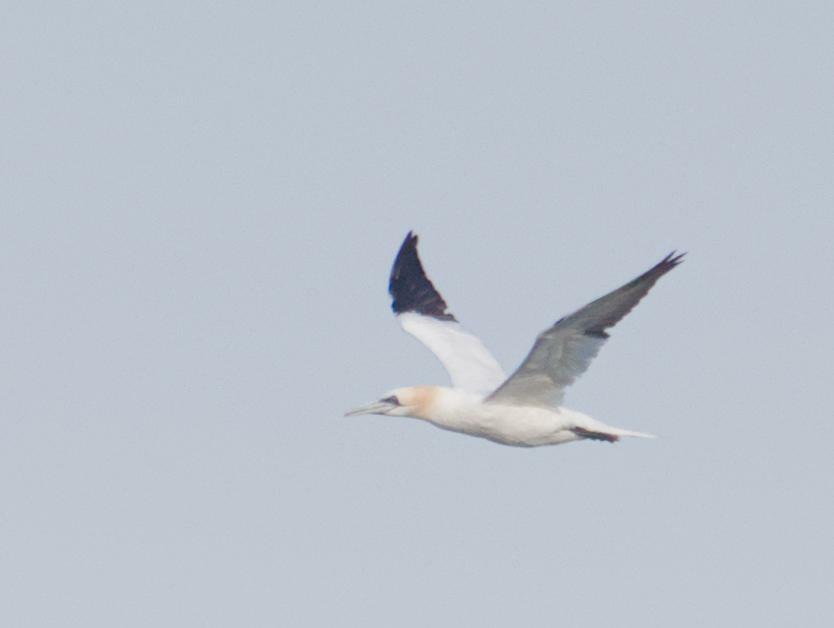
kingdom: Animalia
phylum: Chordata
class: Aves
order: Suliformes
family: Sulidae
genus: Morus
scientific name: Morus bassanus
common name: Northern gannet
